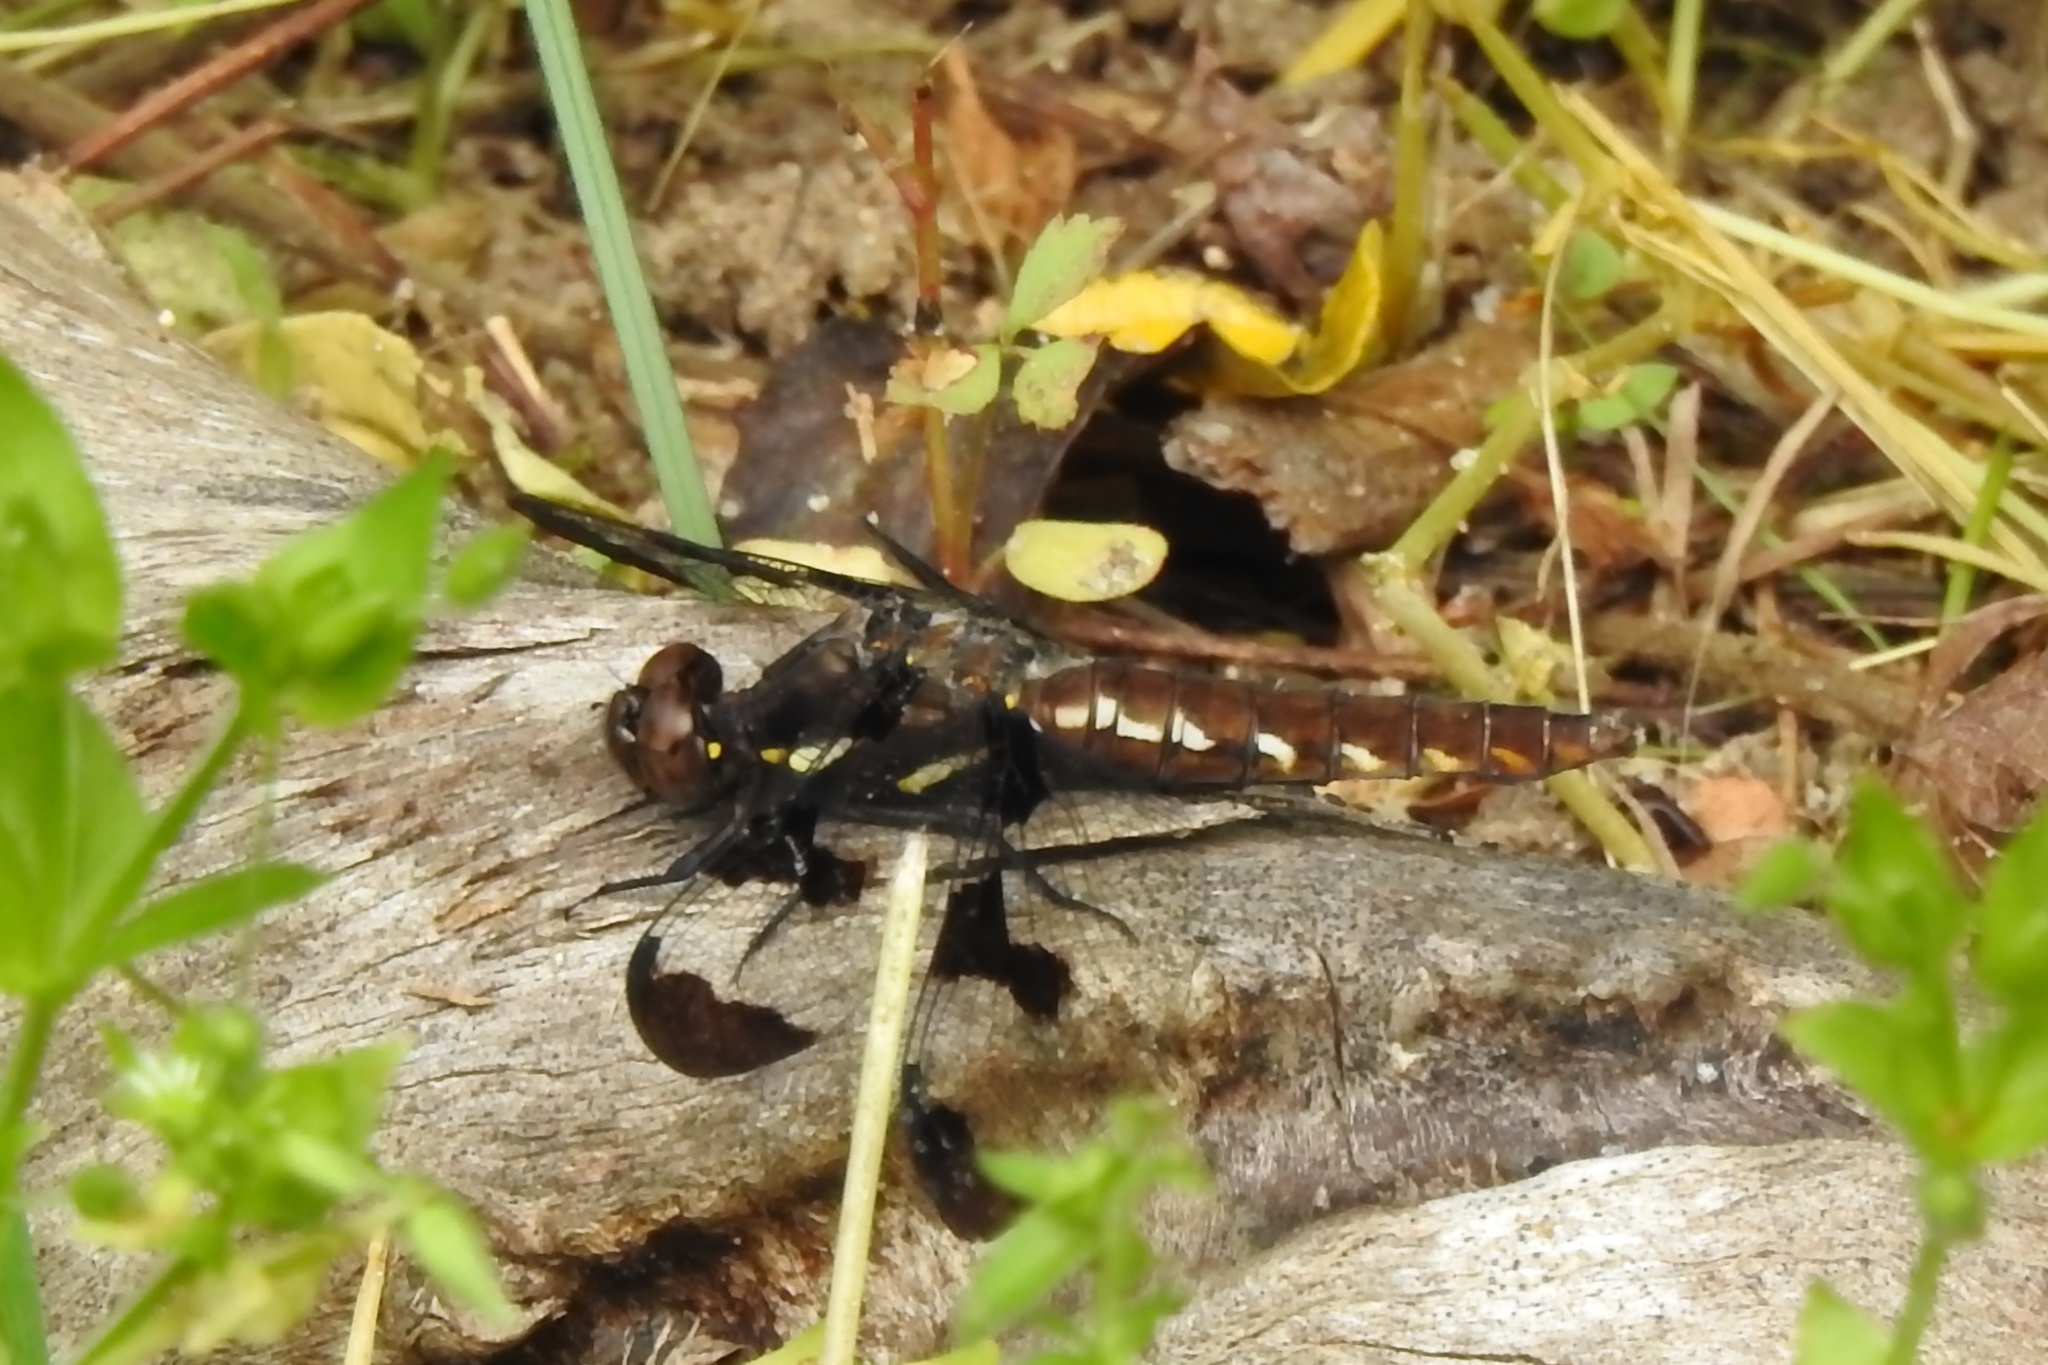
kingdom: Animalia
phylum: Arthropoda
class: Insecta
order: Odonata
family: Libellulidae
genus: Plathemis
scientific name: Plathemis lydia
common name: Common whitetail
